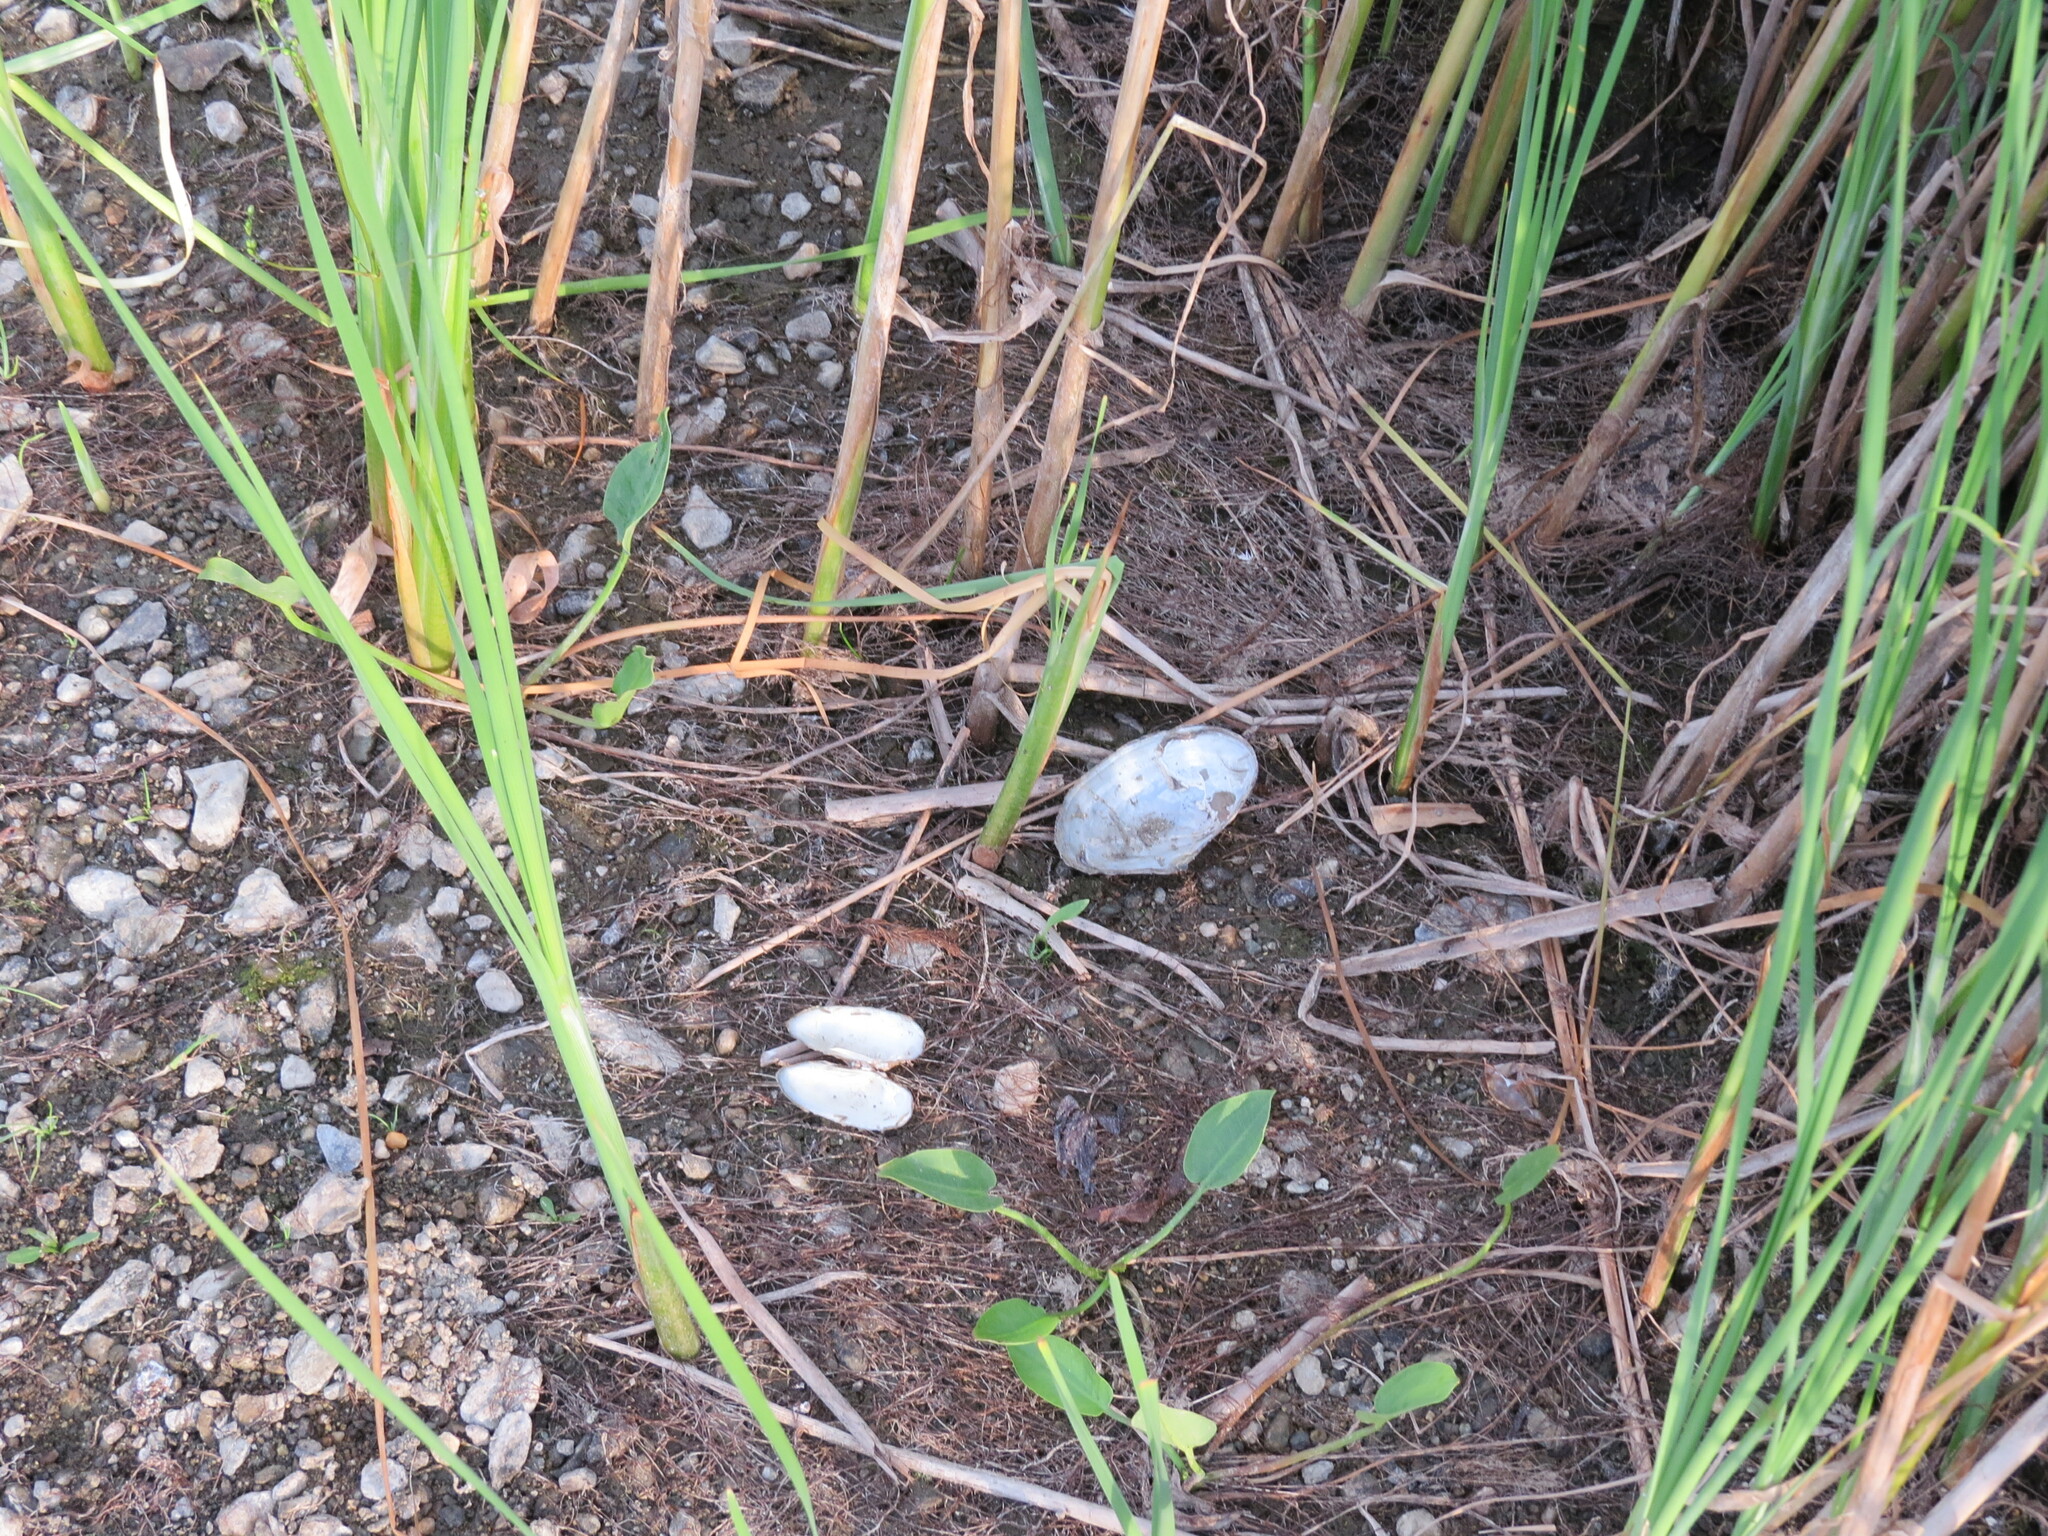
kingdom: Animalia
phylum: Mollusca
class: Bivalvia
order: Unionida
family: Unionidae
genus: Anodonta
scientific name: Anodonta anatina
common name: Duck mussel
